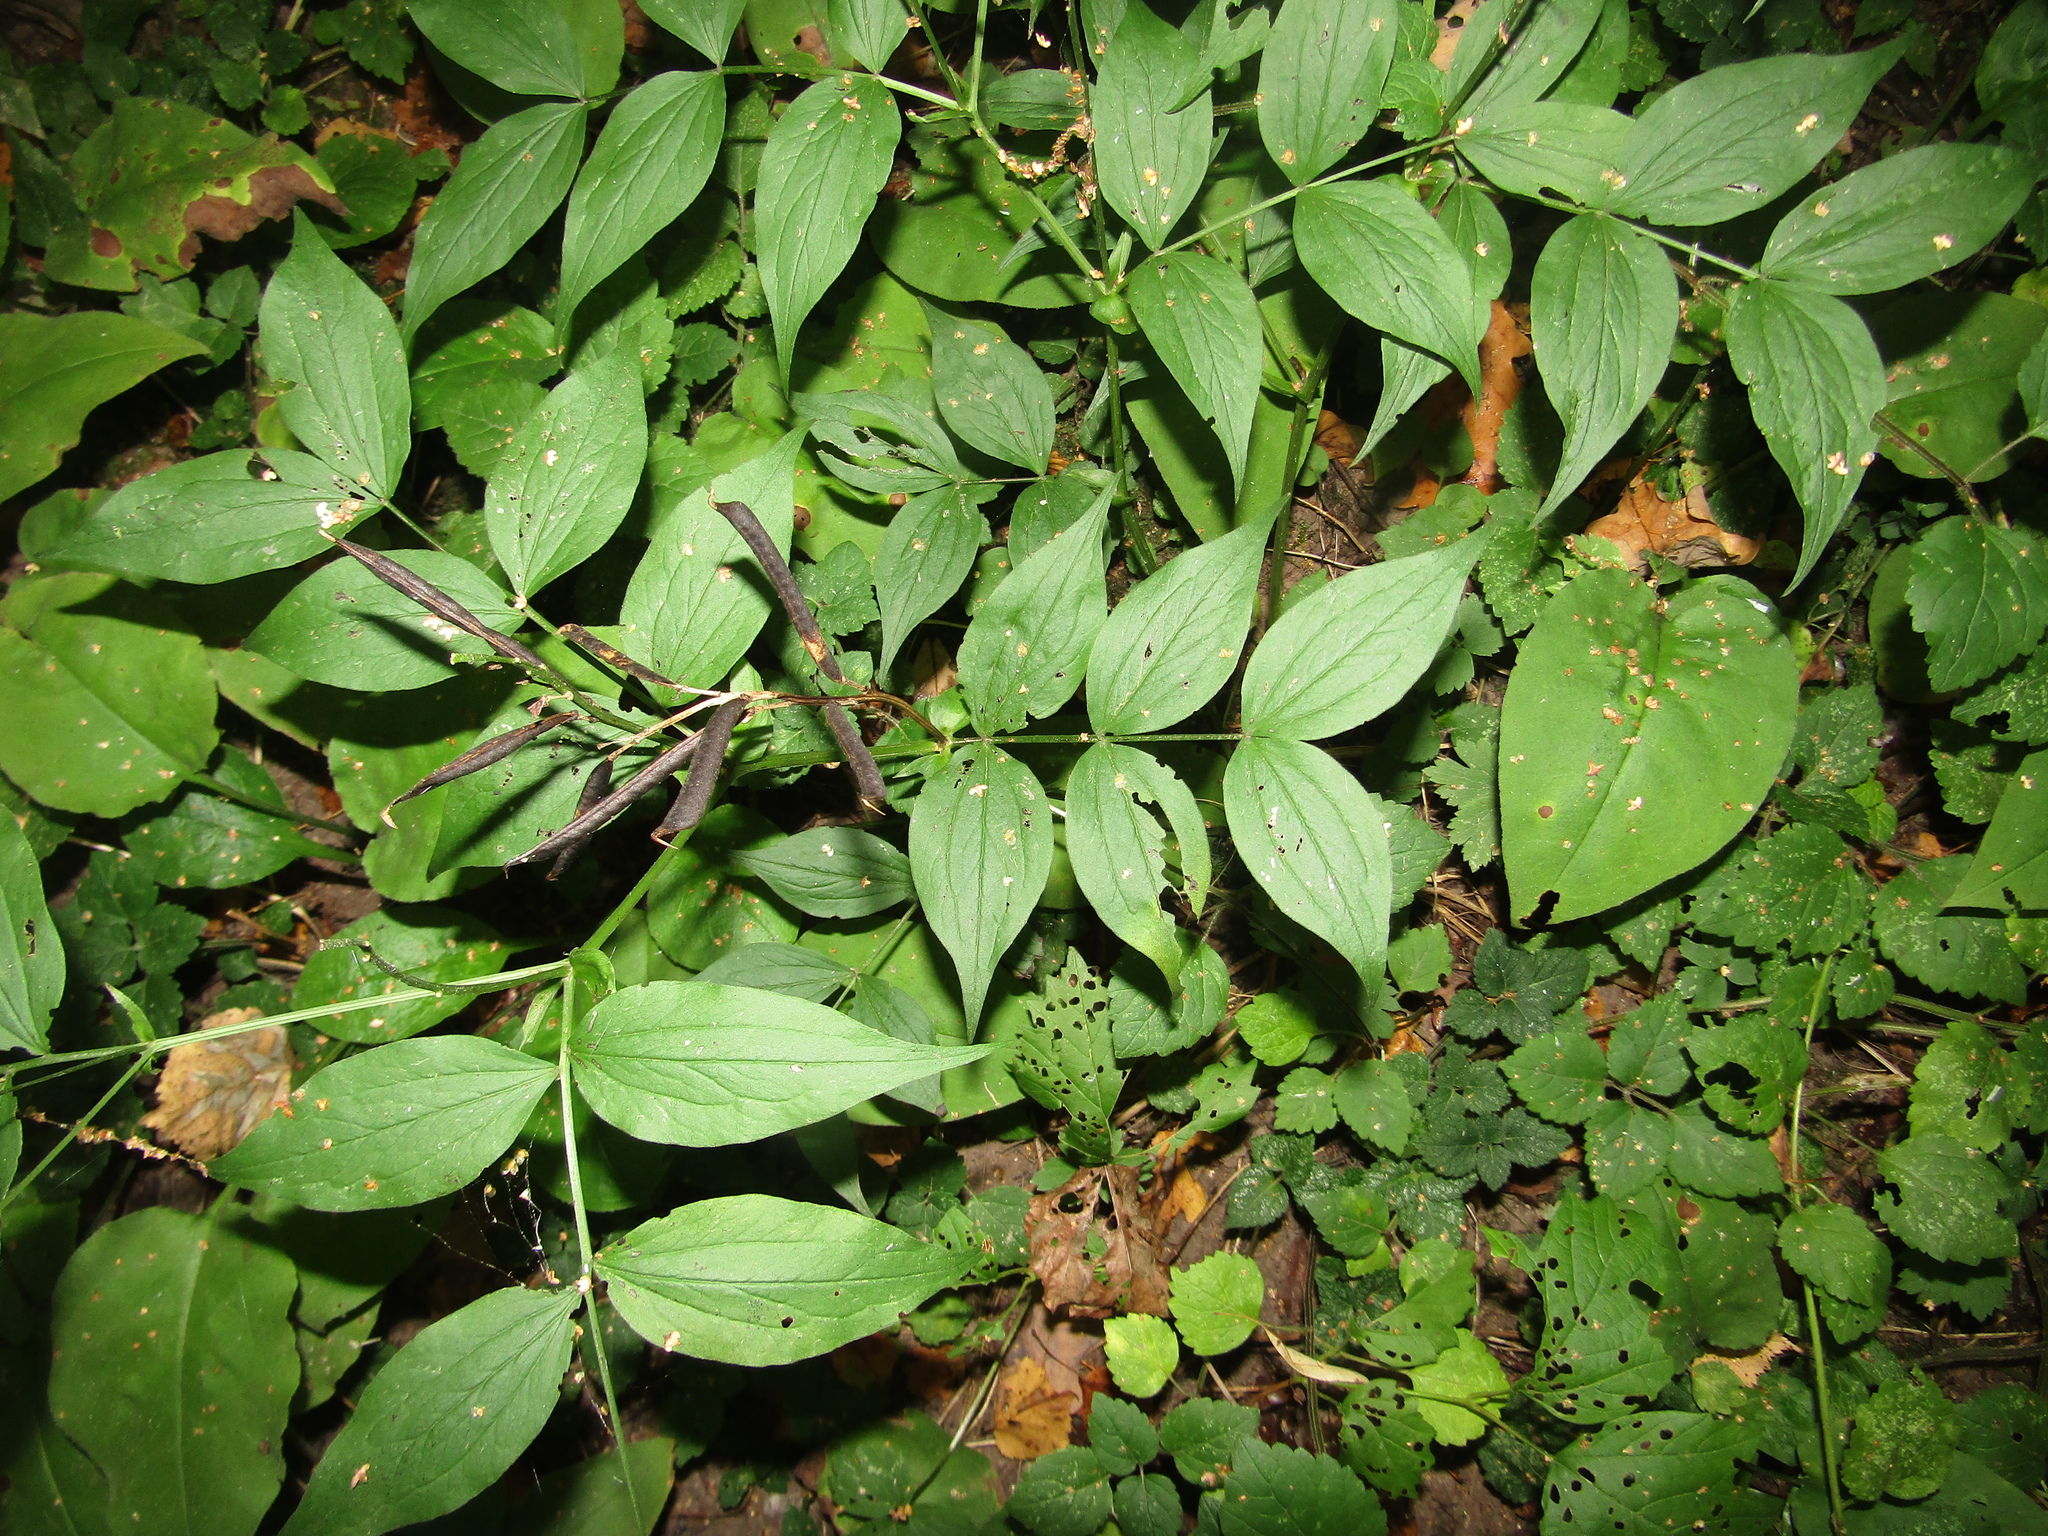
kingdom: Plantae
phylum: Tracheophyta
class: Magnoliopsida
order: Fabales
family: Fabaceae
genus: Lathyrus
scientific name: Lathyrus vernus
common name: Spring pea
